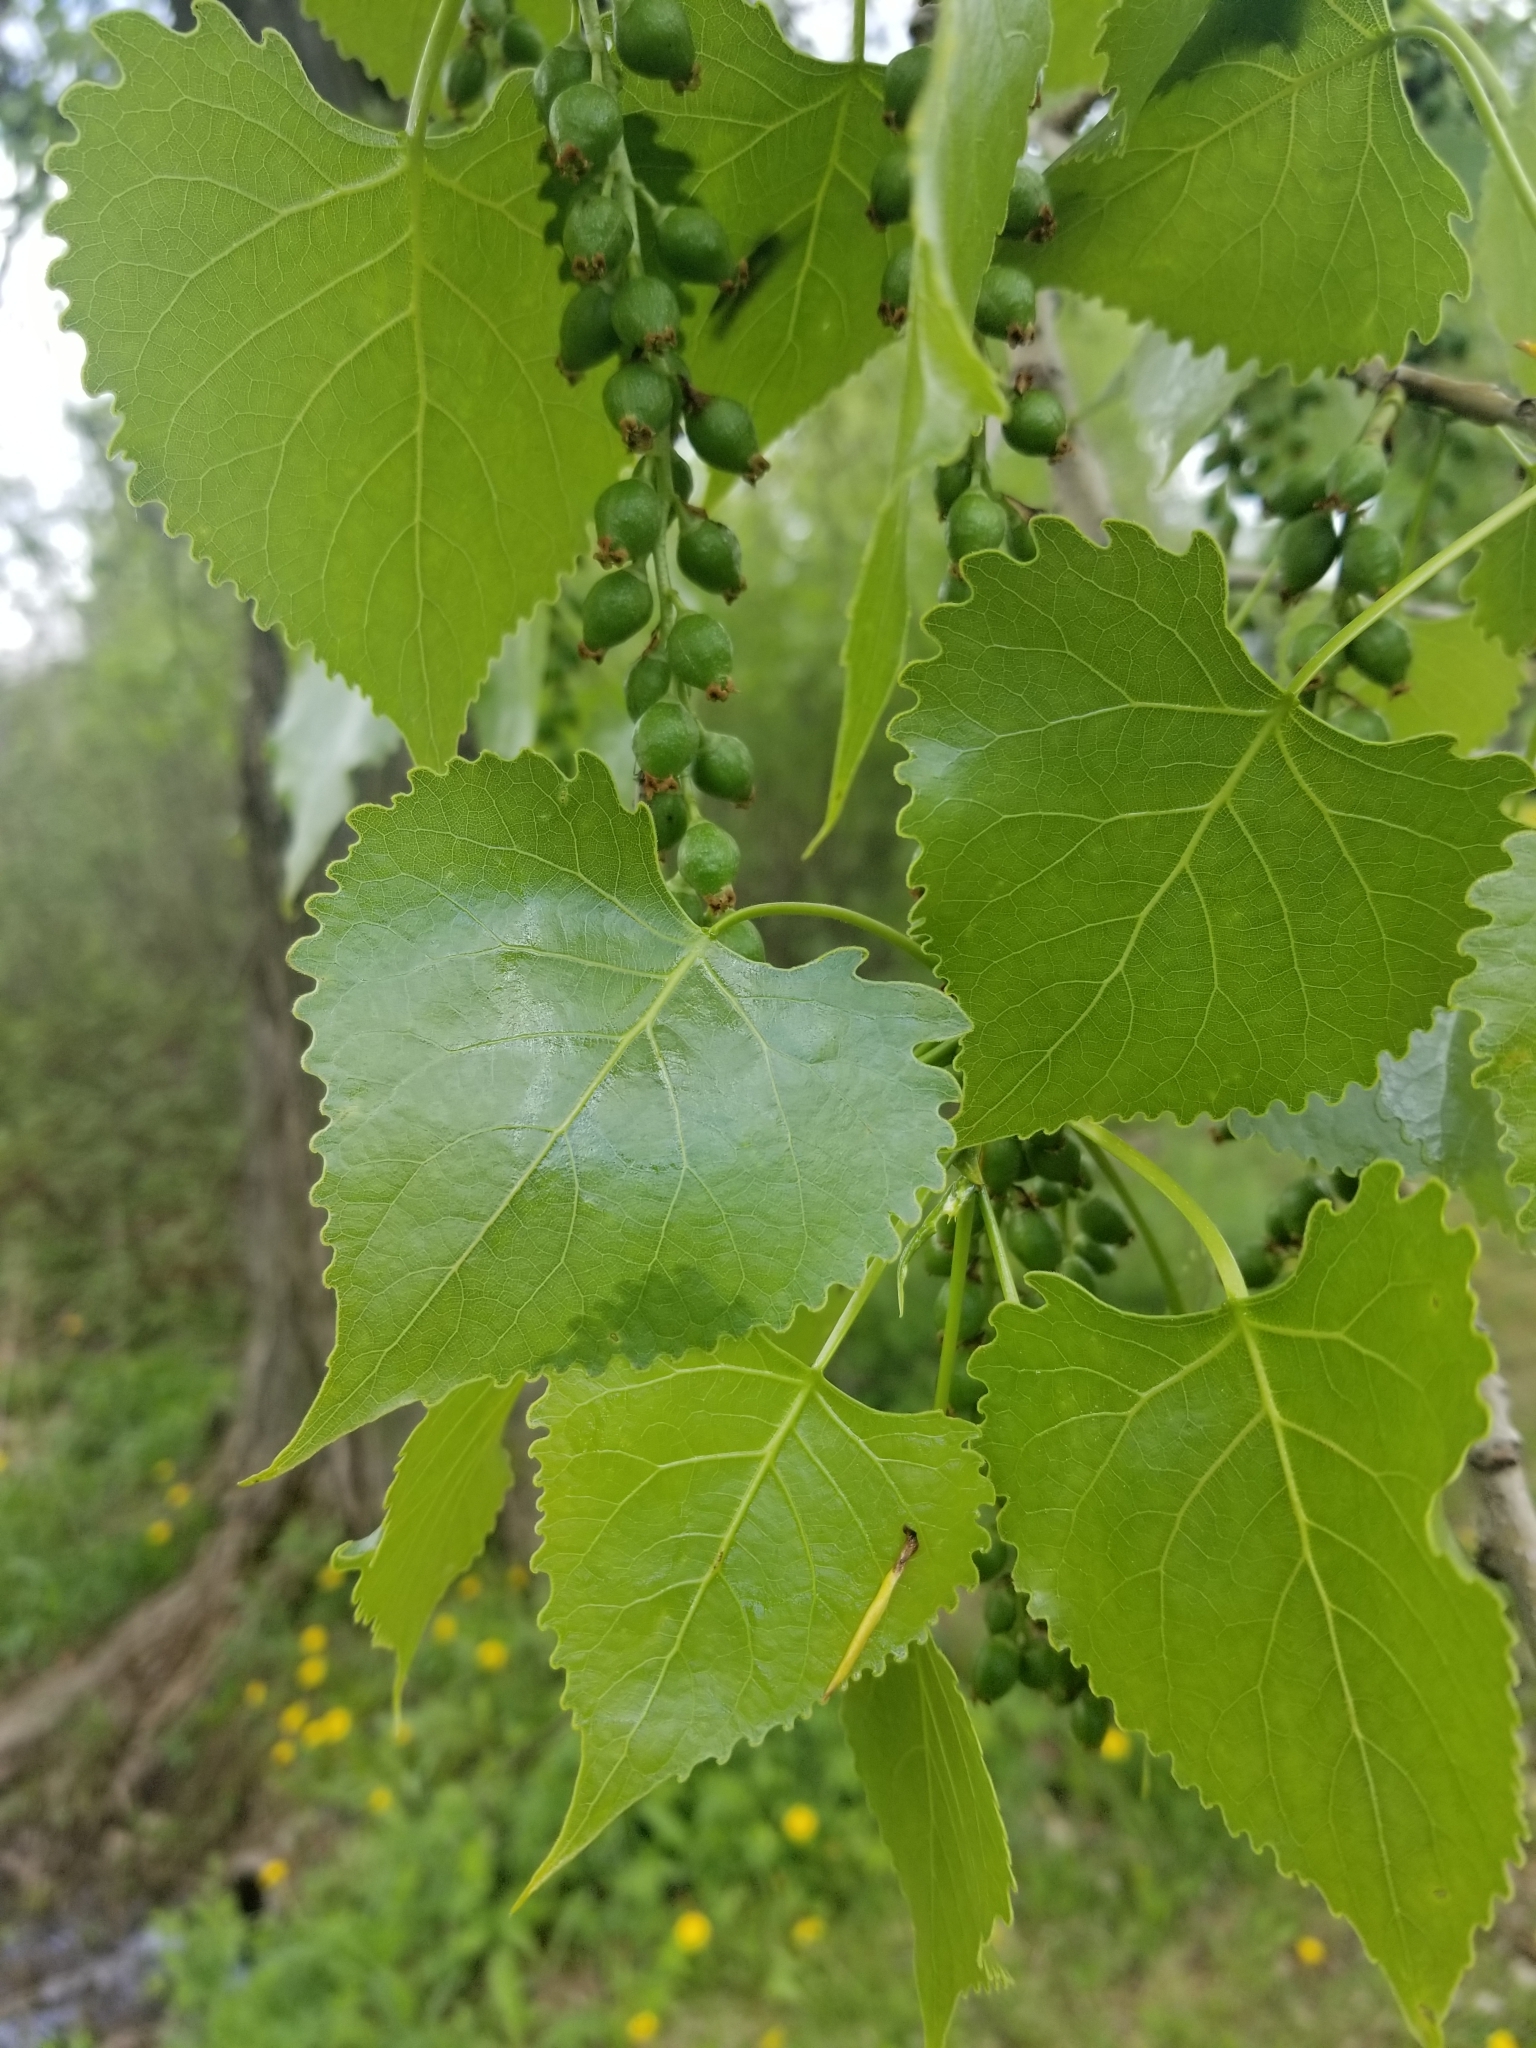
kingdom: Plantae
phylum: Tracheophyta
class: Magnoliopsida
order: Malpighiales
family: Salicaceae
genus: Populus
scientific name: Populus deltoides
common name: Eastern cottonwood
